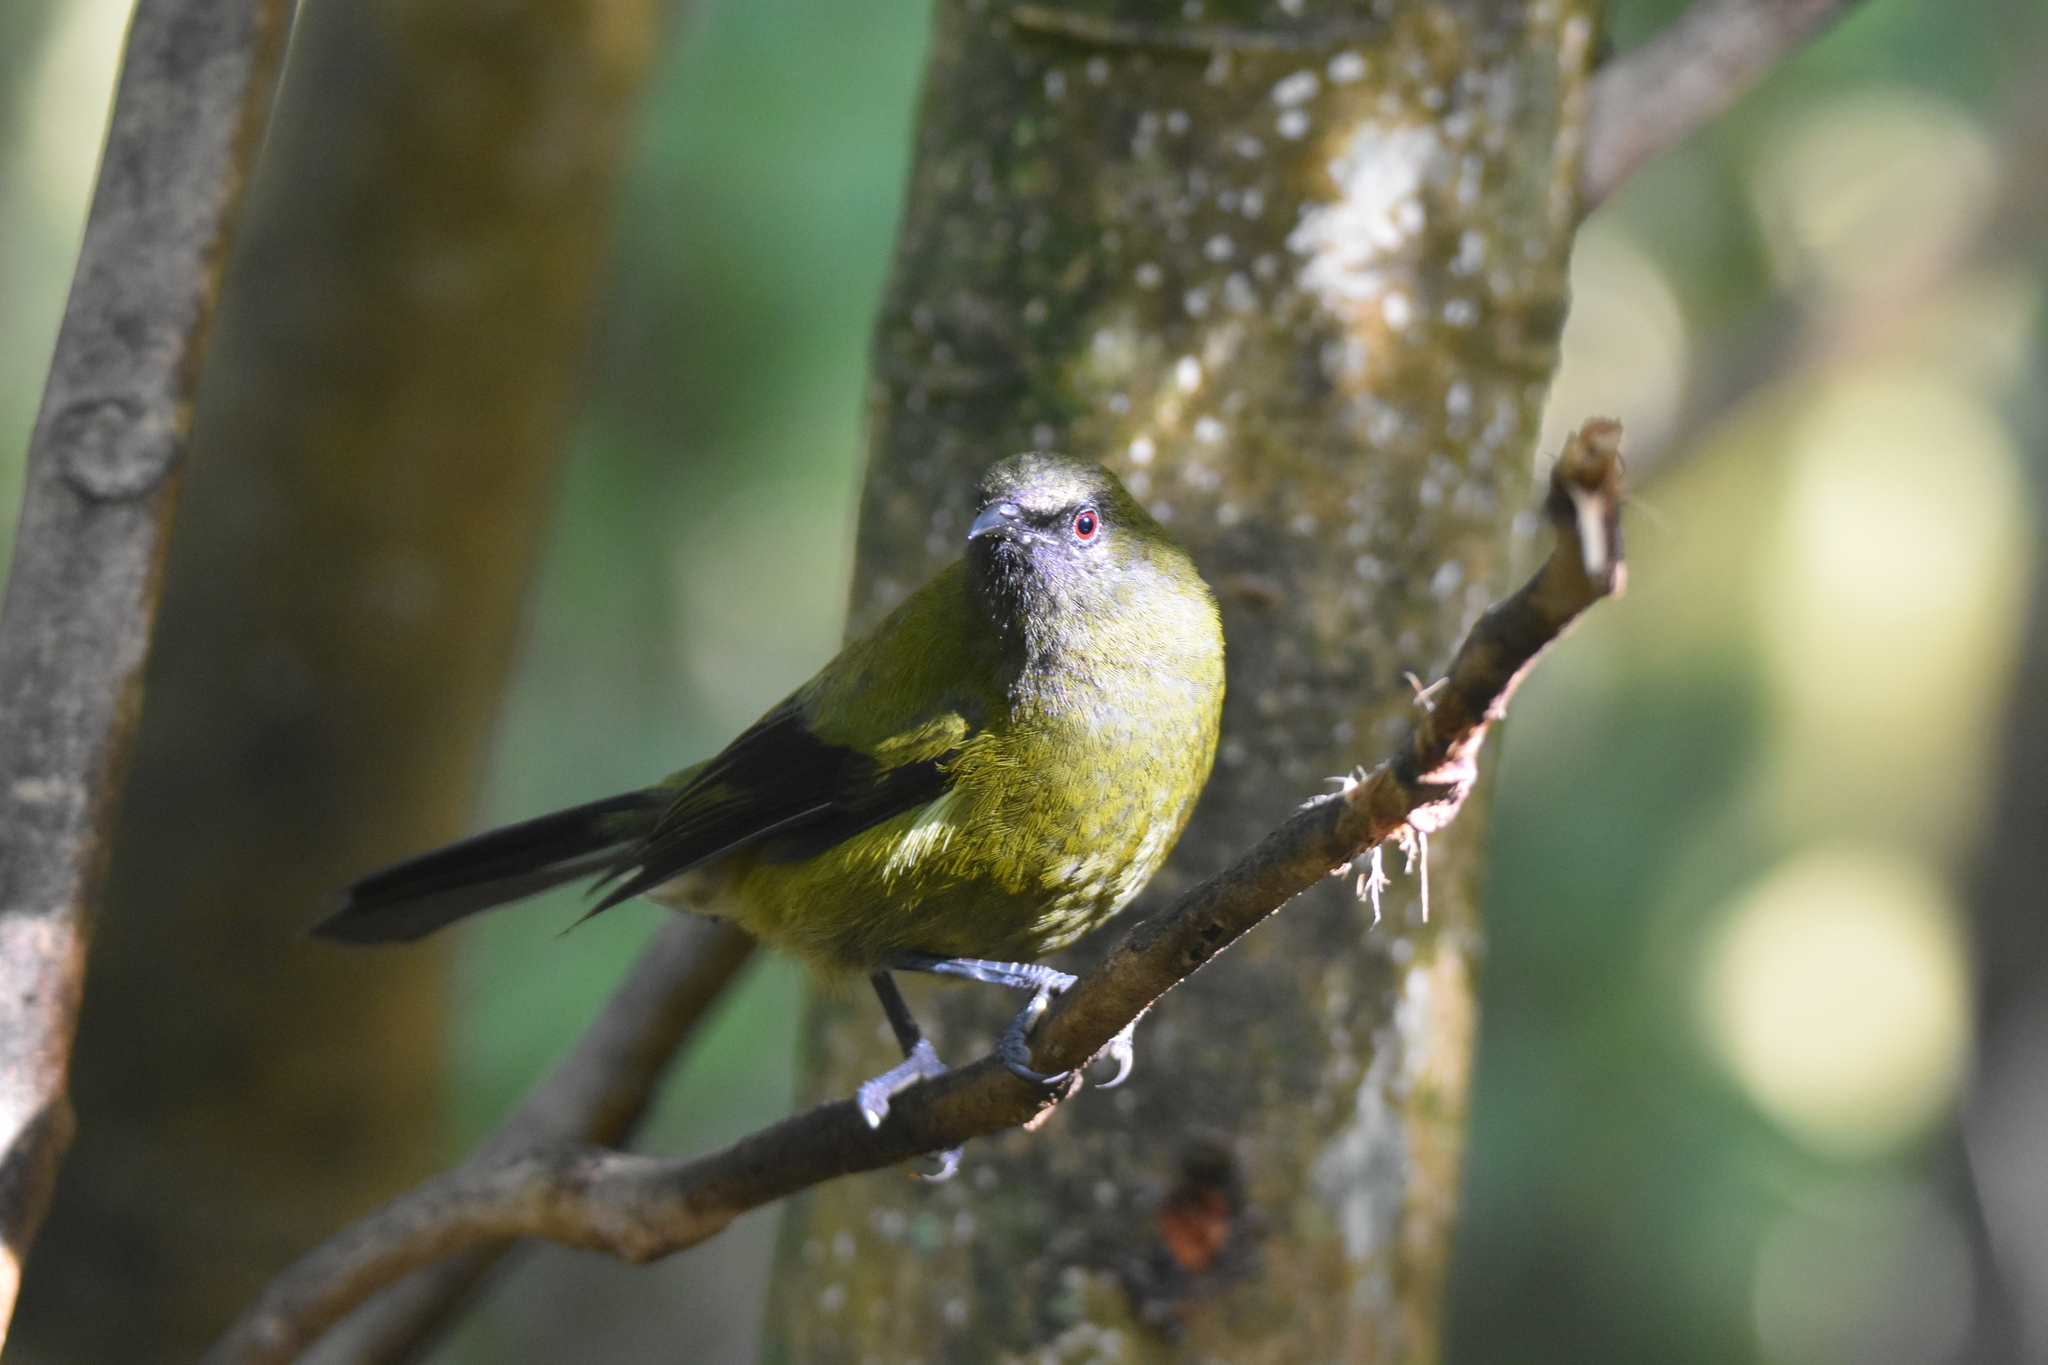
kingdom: Animalia
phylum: Chordata
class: Aves
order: Passeriformes
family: Meliphagidae
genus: Anthornis
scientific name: Anthornis melanura
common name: New zealand bellbird
